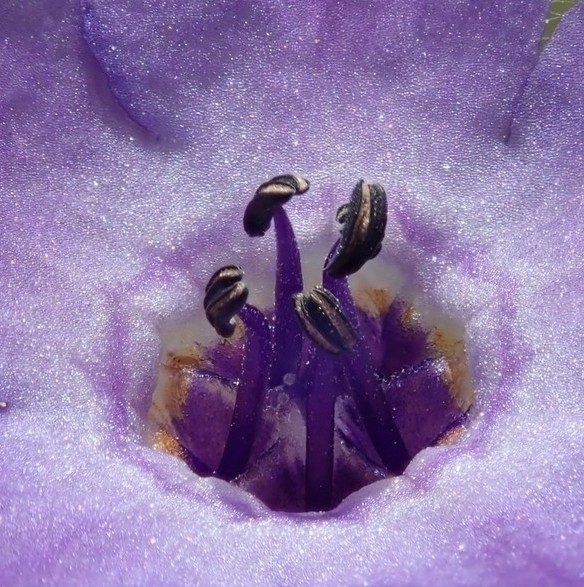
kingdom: Plantae
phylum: Tracheophyta
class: Magnoliopsida
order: Boraginales
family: Hydrophyllaceae
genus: Pholistoma
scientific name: Pholistoma auritum
